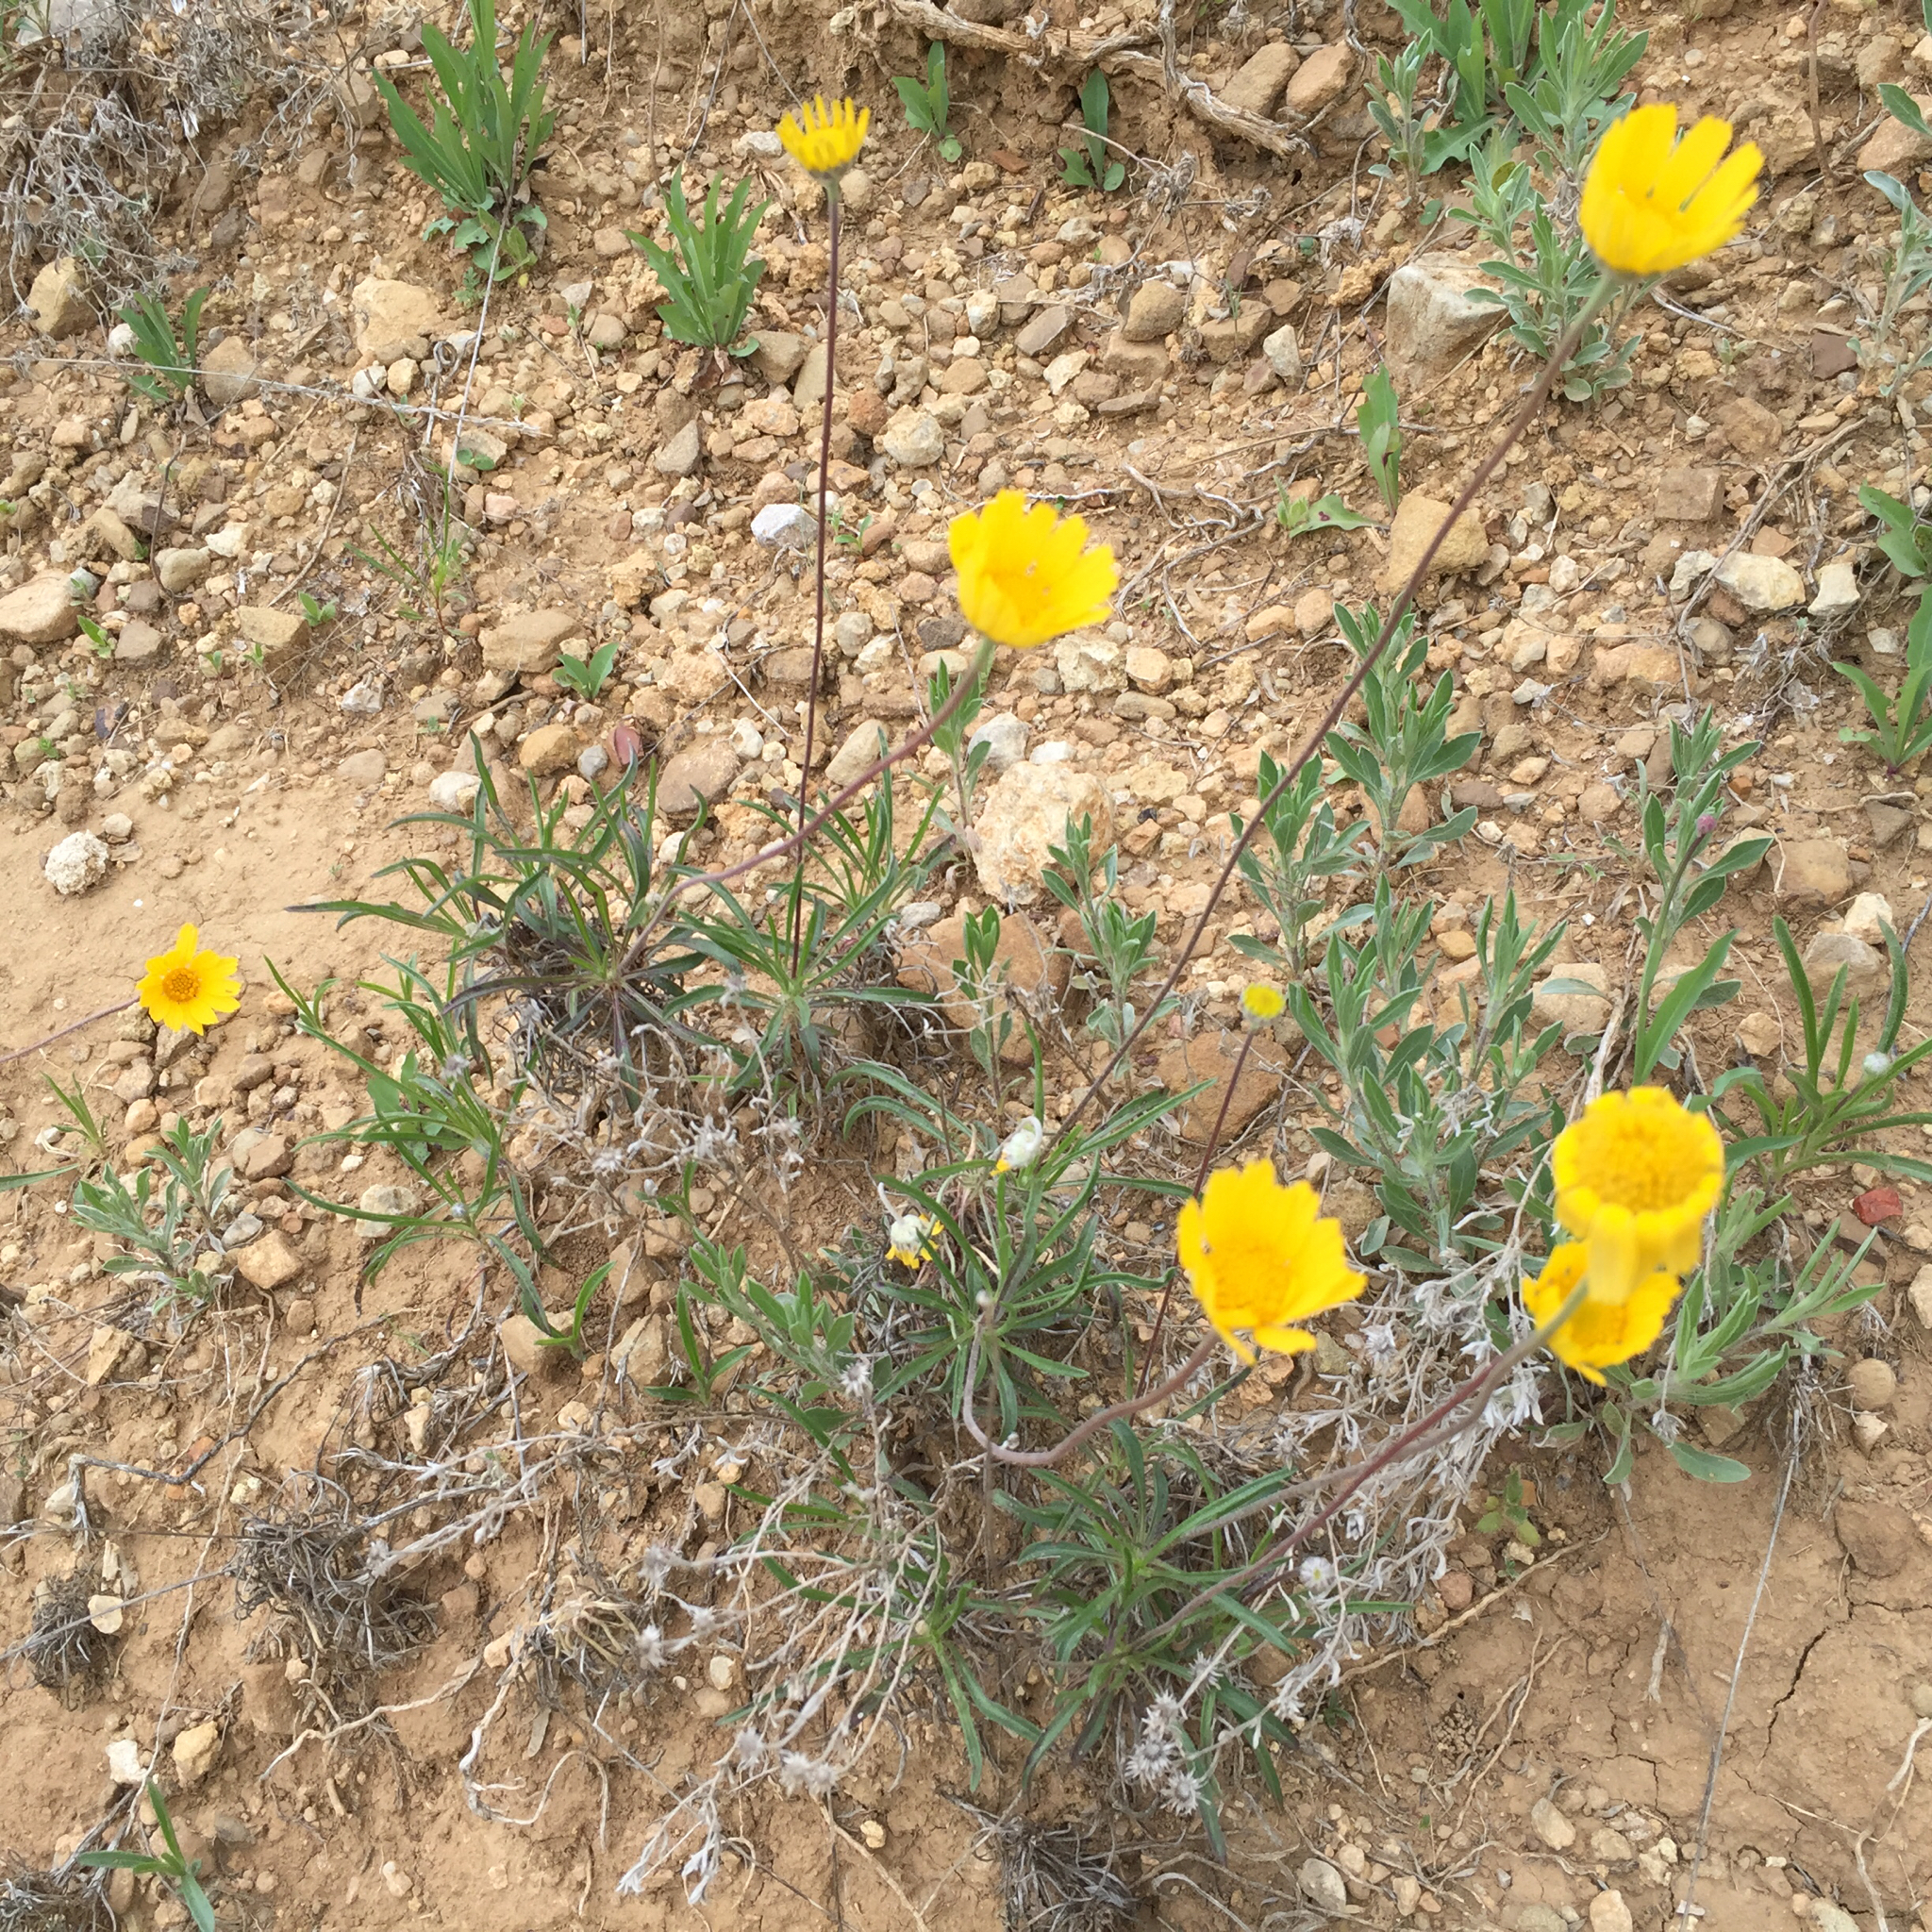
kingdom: Plantae
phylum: Tracheophyta
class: Magnoliopsida
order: Asterales
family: Asteraceae
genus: Tetraneuris
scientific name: Tetraneuris scaposa
